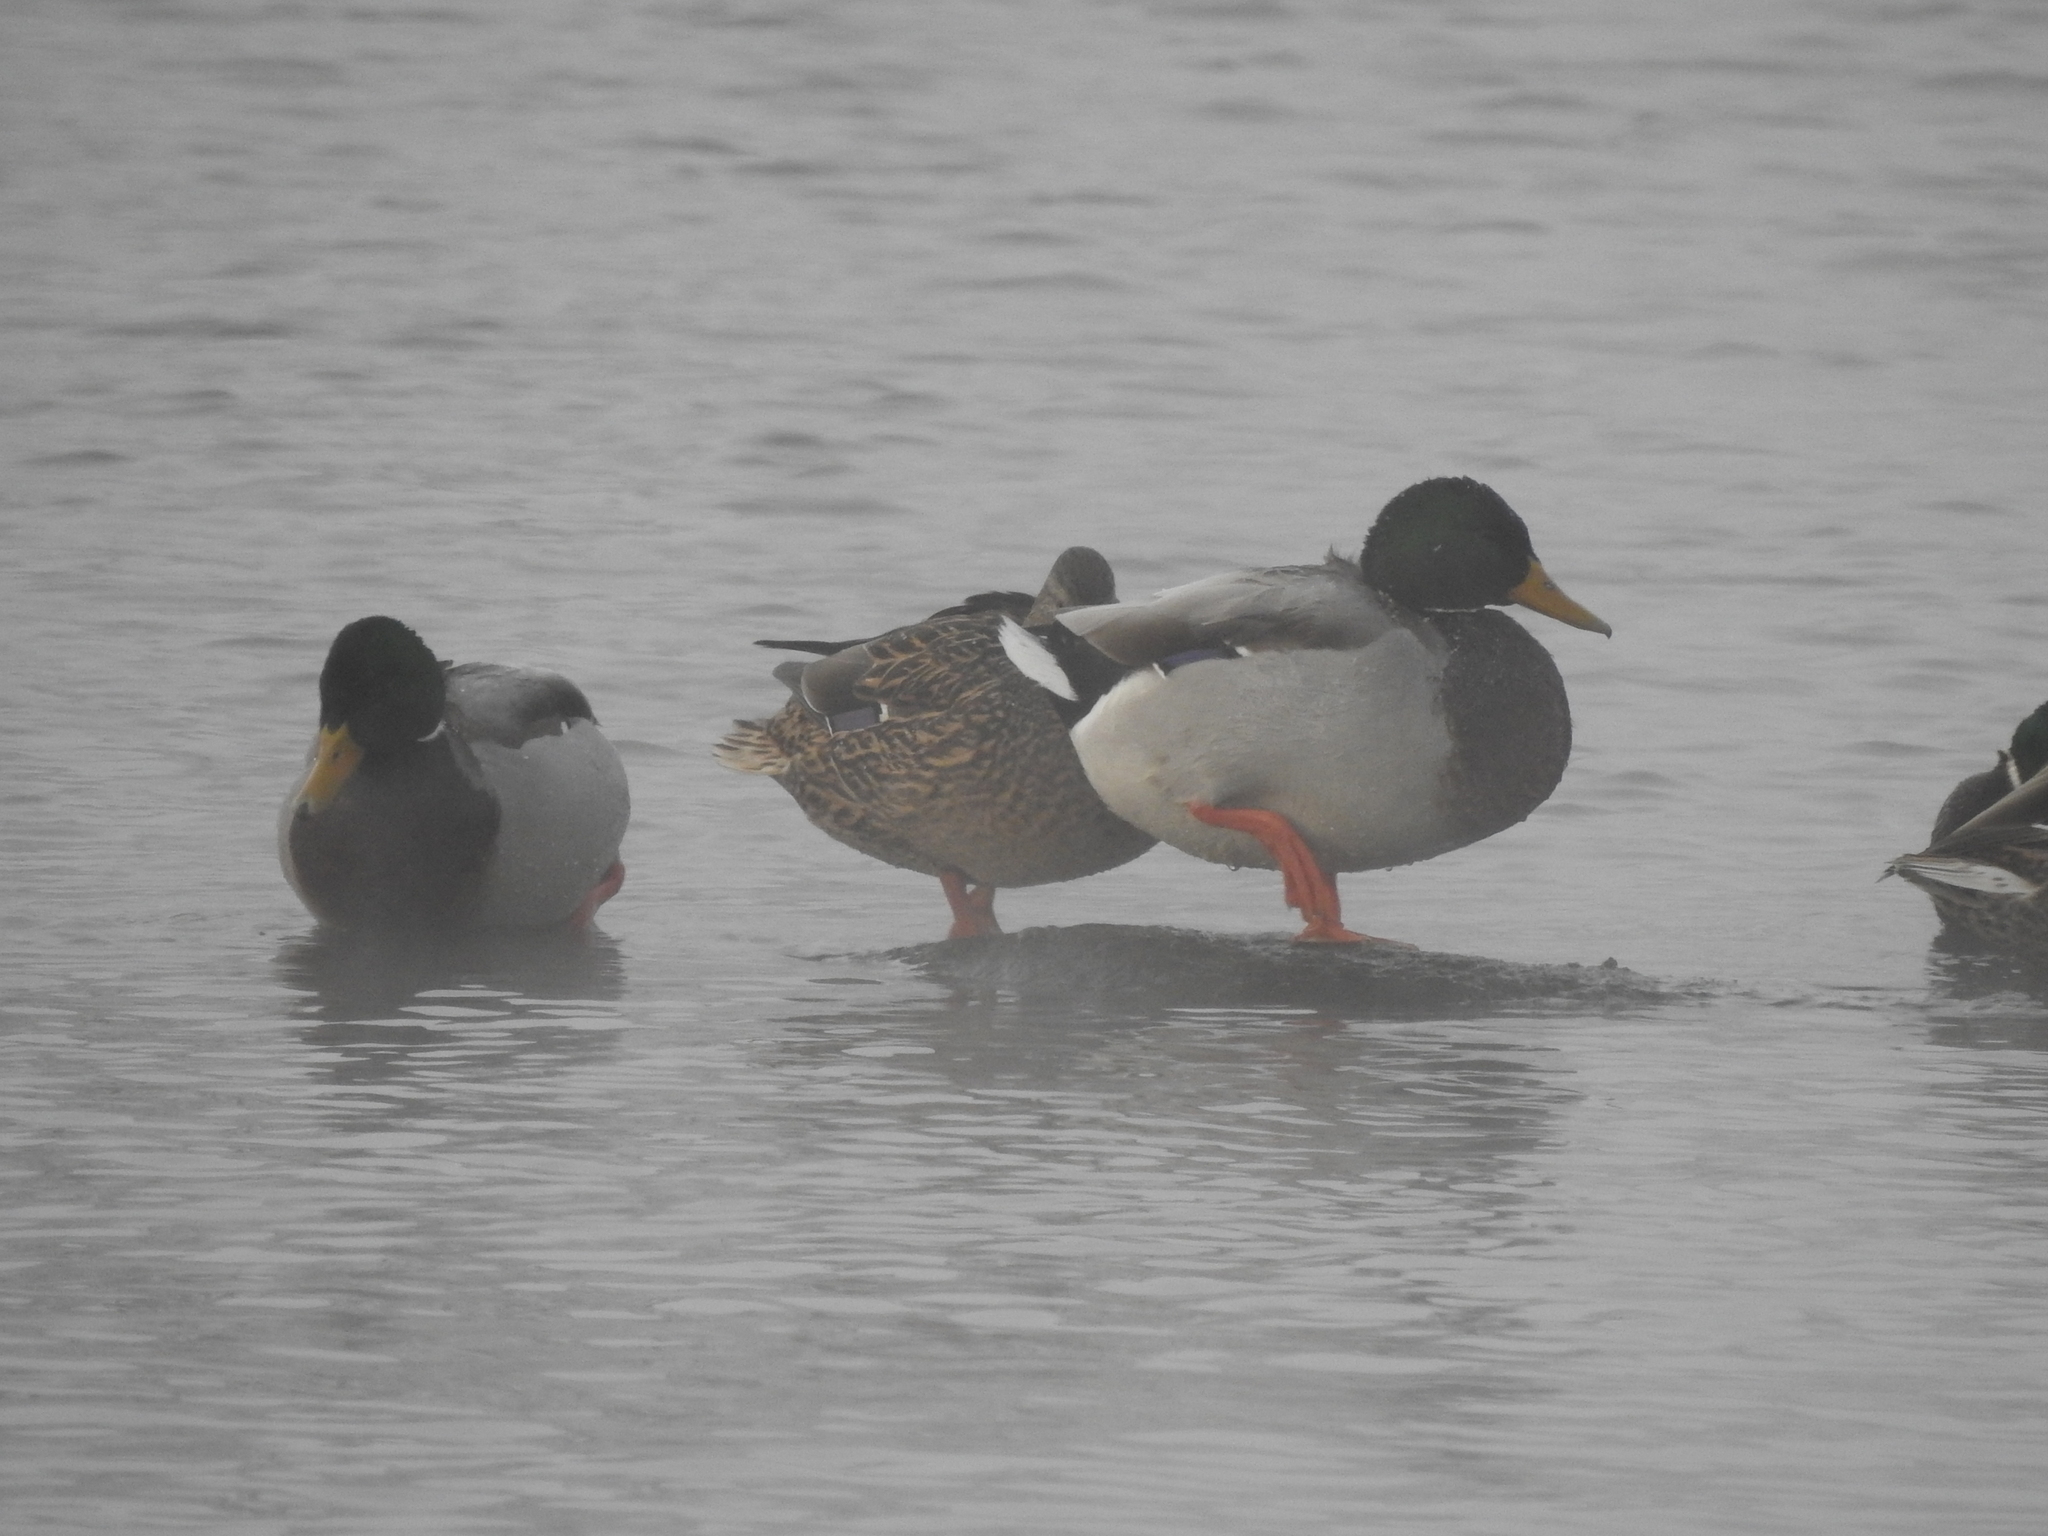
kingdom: Animalia
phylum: Chordata
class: Aves
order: Anseriformes
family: Anatidae
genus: Anas
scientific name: Anas platyrhynchos
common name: Mallard
